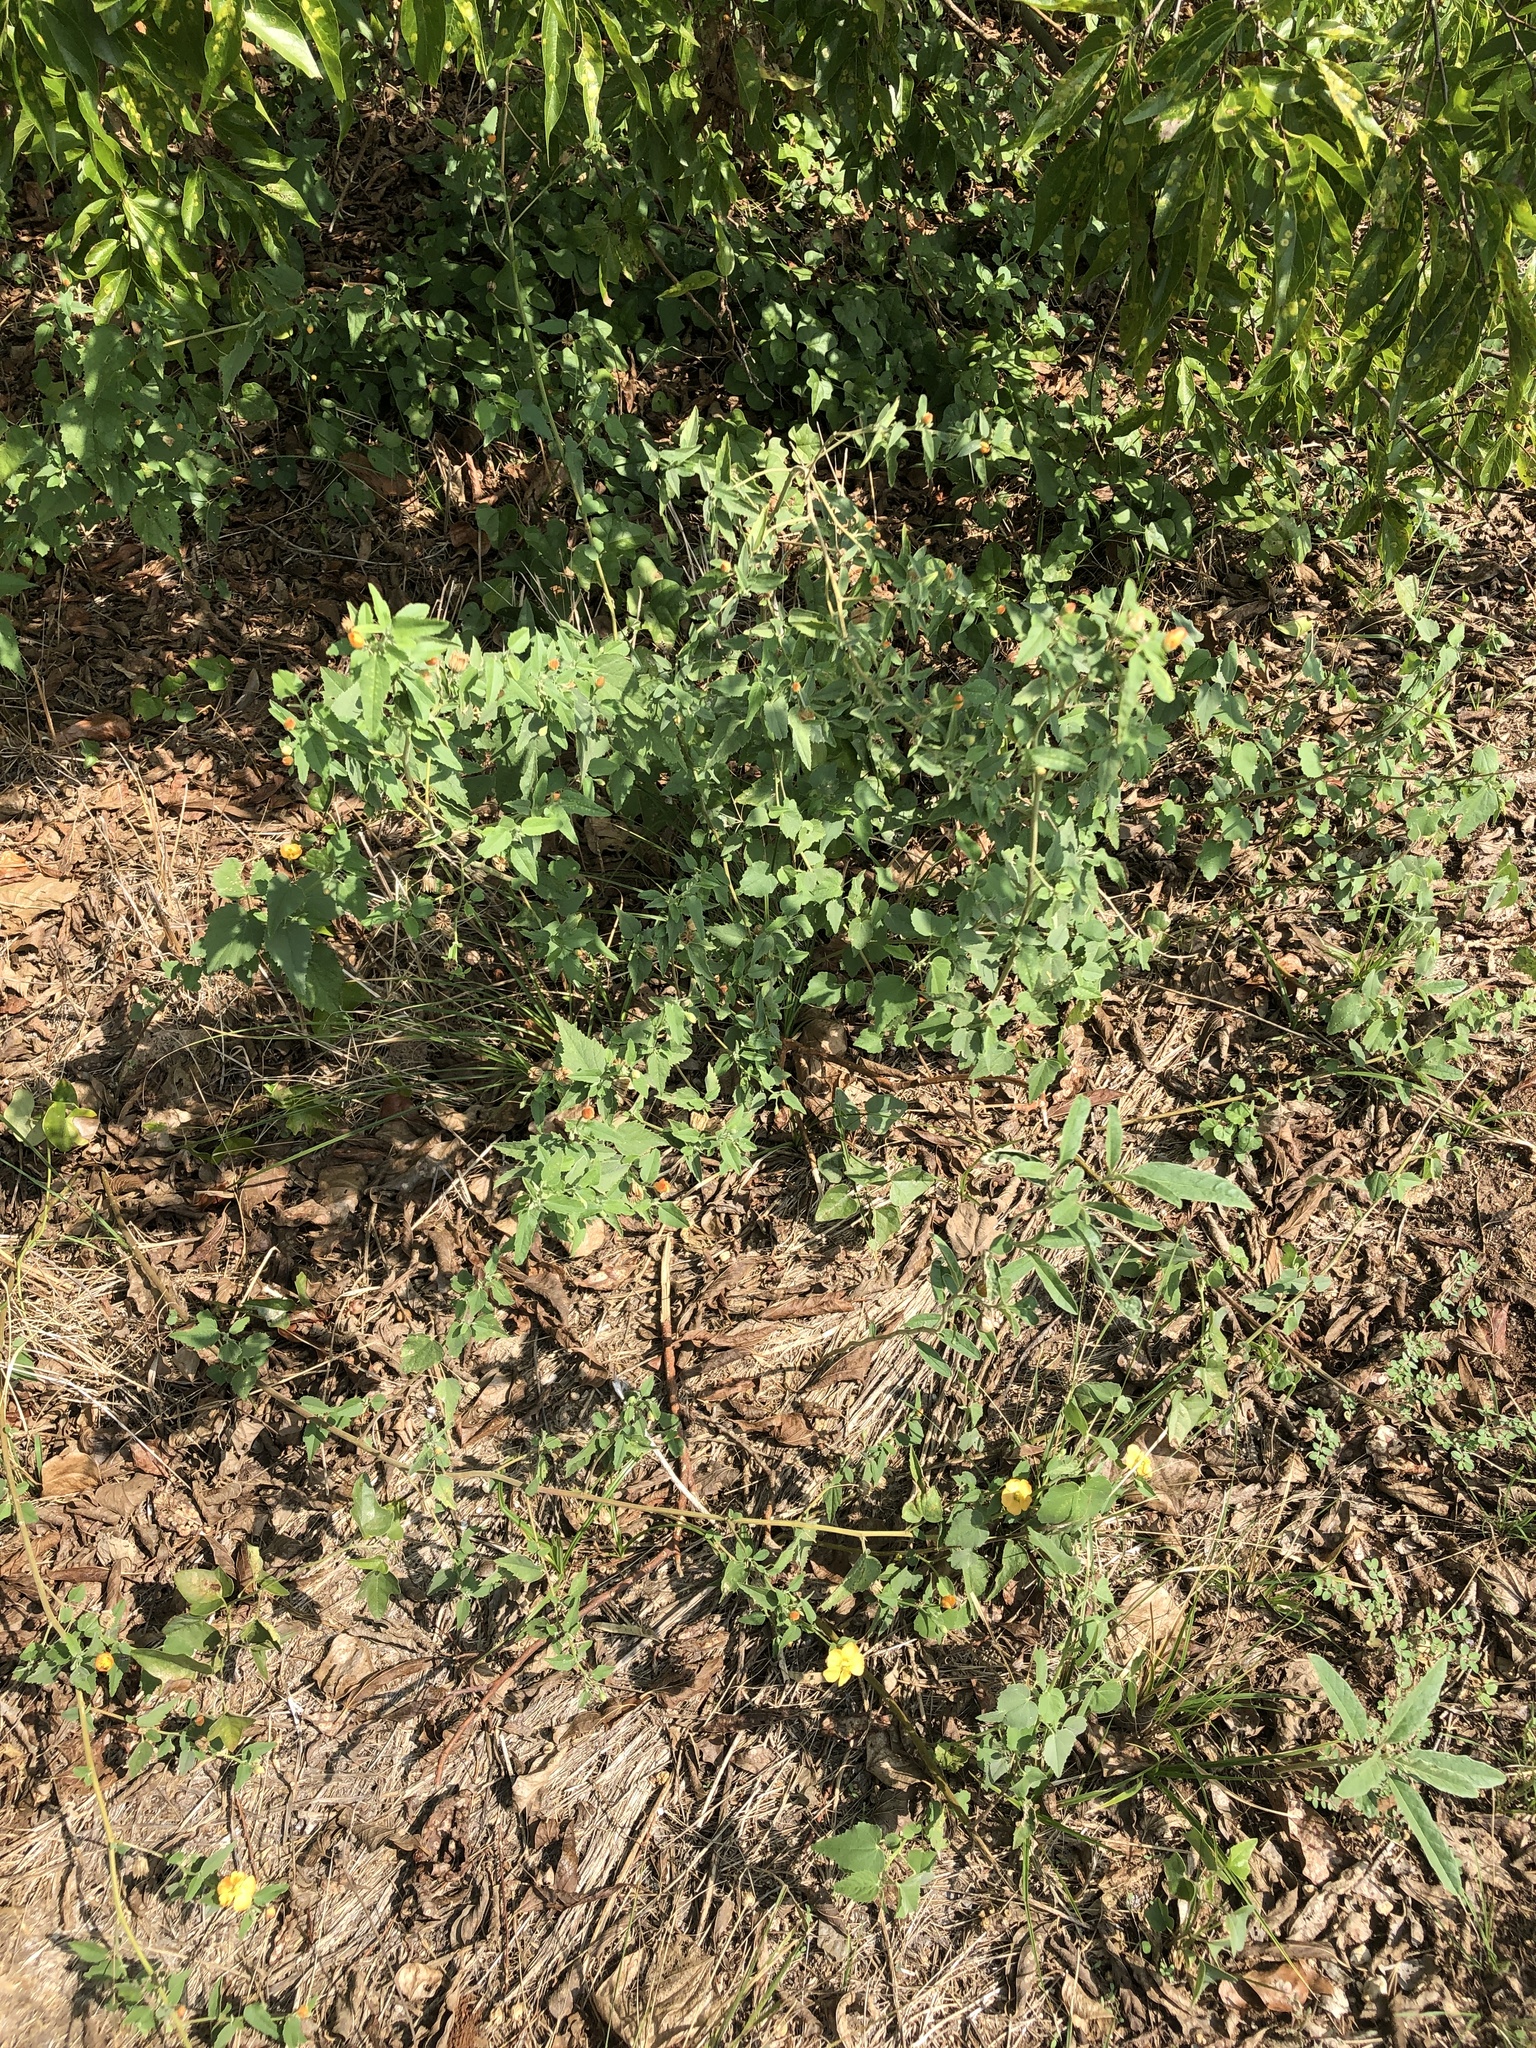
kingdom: Plantae
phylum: Tracheophyta
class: Magnoliopsida
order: Malvales
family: Malvaceae
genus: Abutilon
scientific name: Abutilon fruticosum
